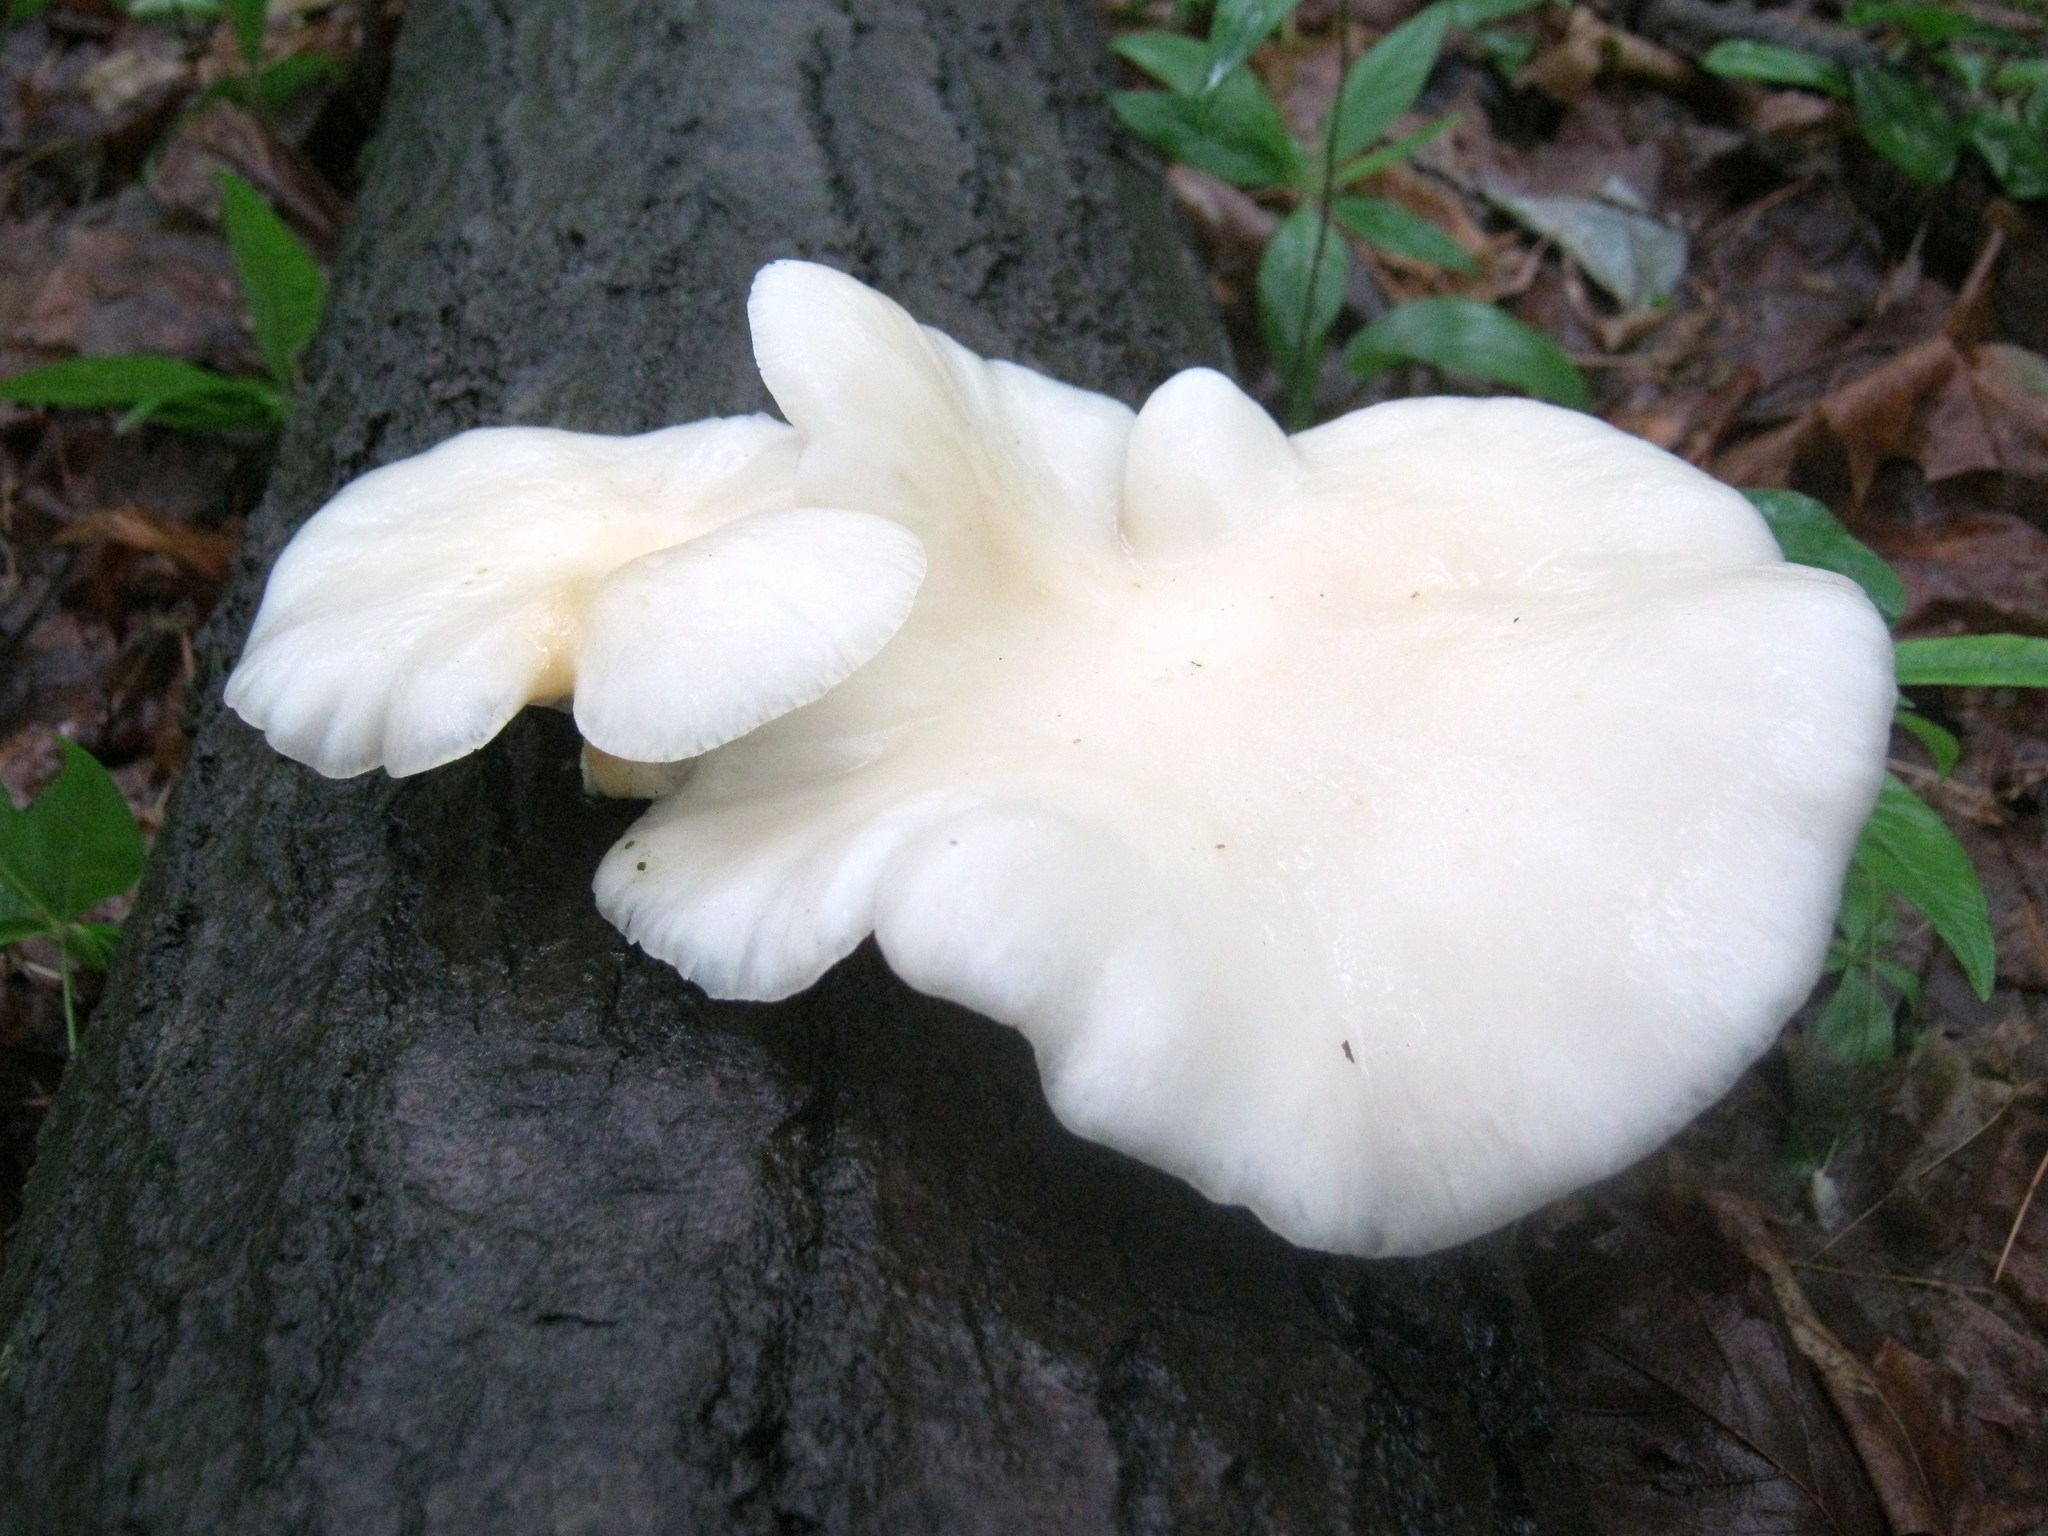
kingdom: Fungi
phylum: Basidiomycota
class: Agaricomycetes
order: Agaricales
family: Pleurotaceae
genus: Pleurotus
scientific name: Pleurotus populinus
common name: Aspen oyster mushroom
